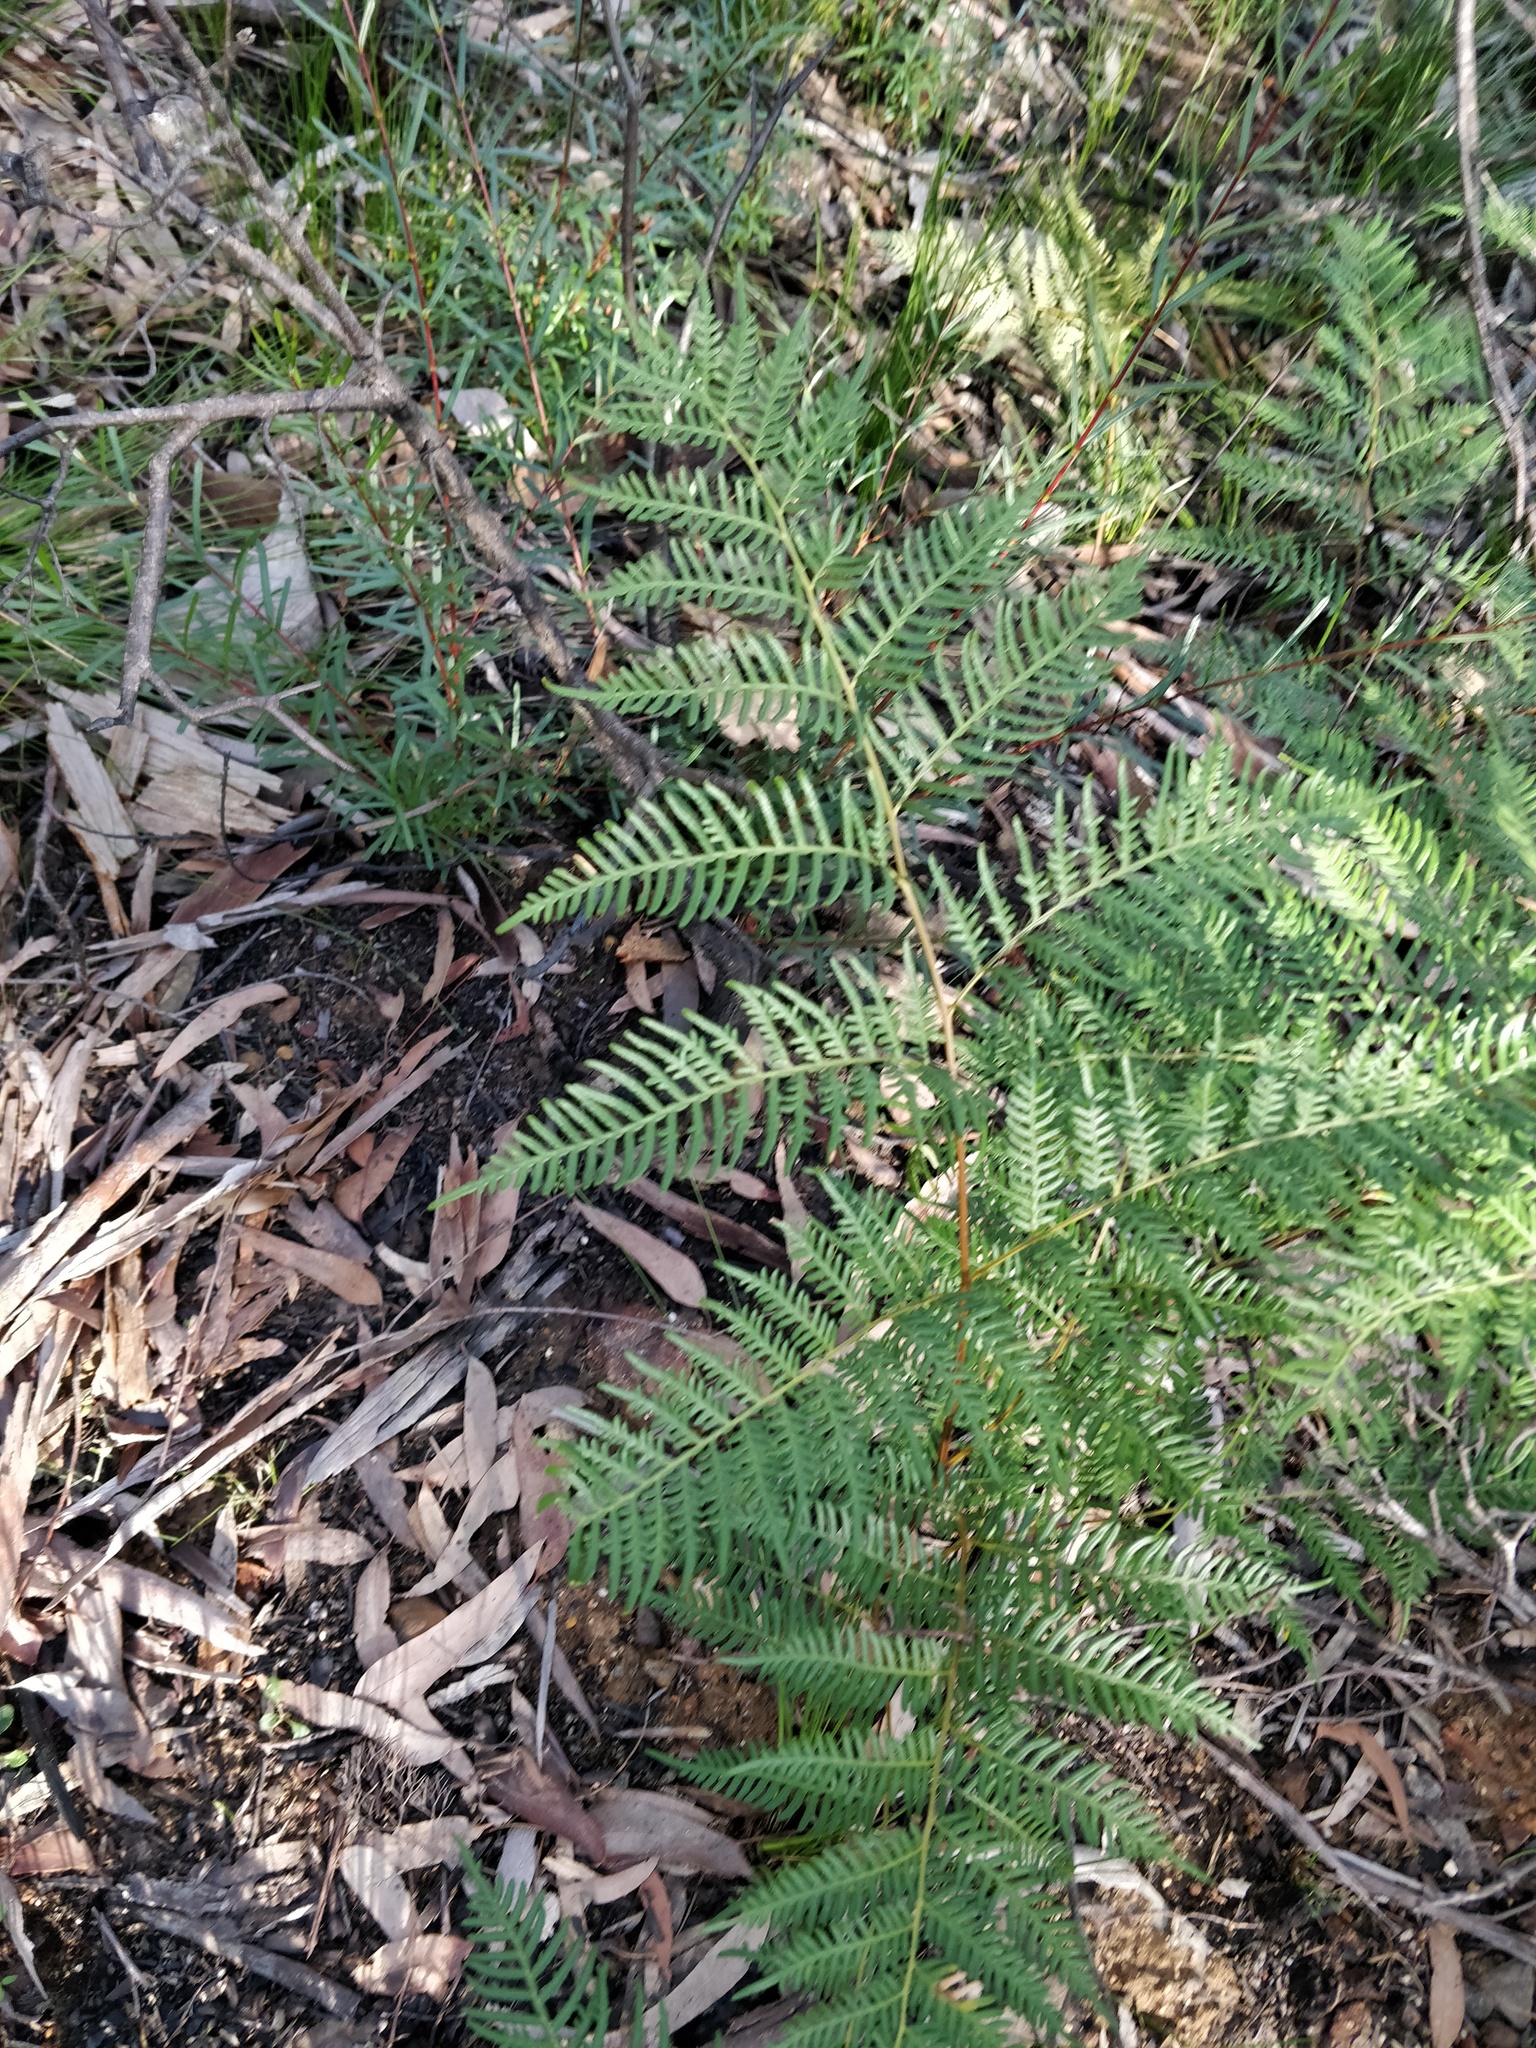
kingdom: Plantae
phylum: Tracheophyta
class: Polypodiopsida
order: Polypodiales
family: Dennstaedtiaceae
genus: Pteridium
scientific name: Pteridium esculentum
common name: Bracken fern
